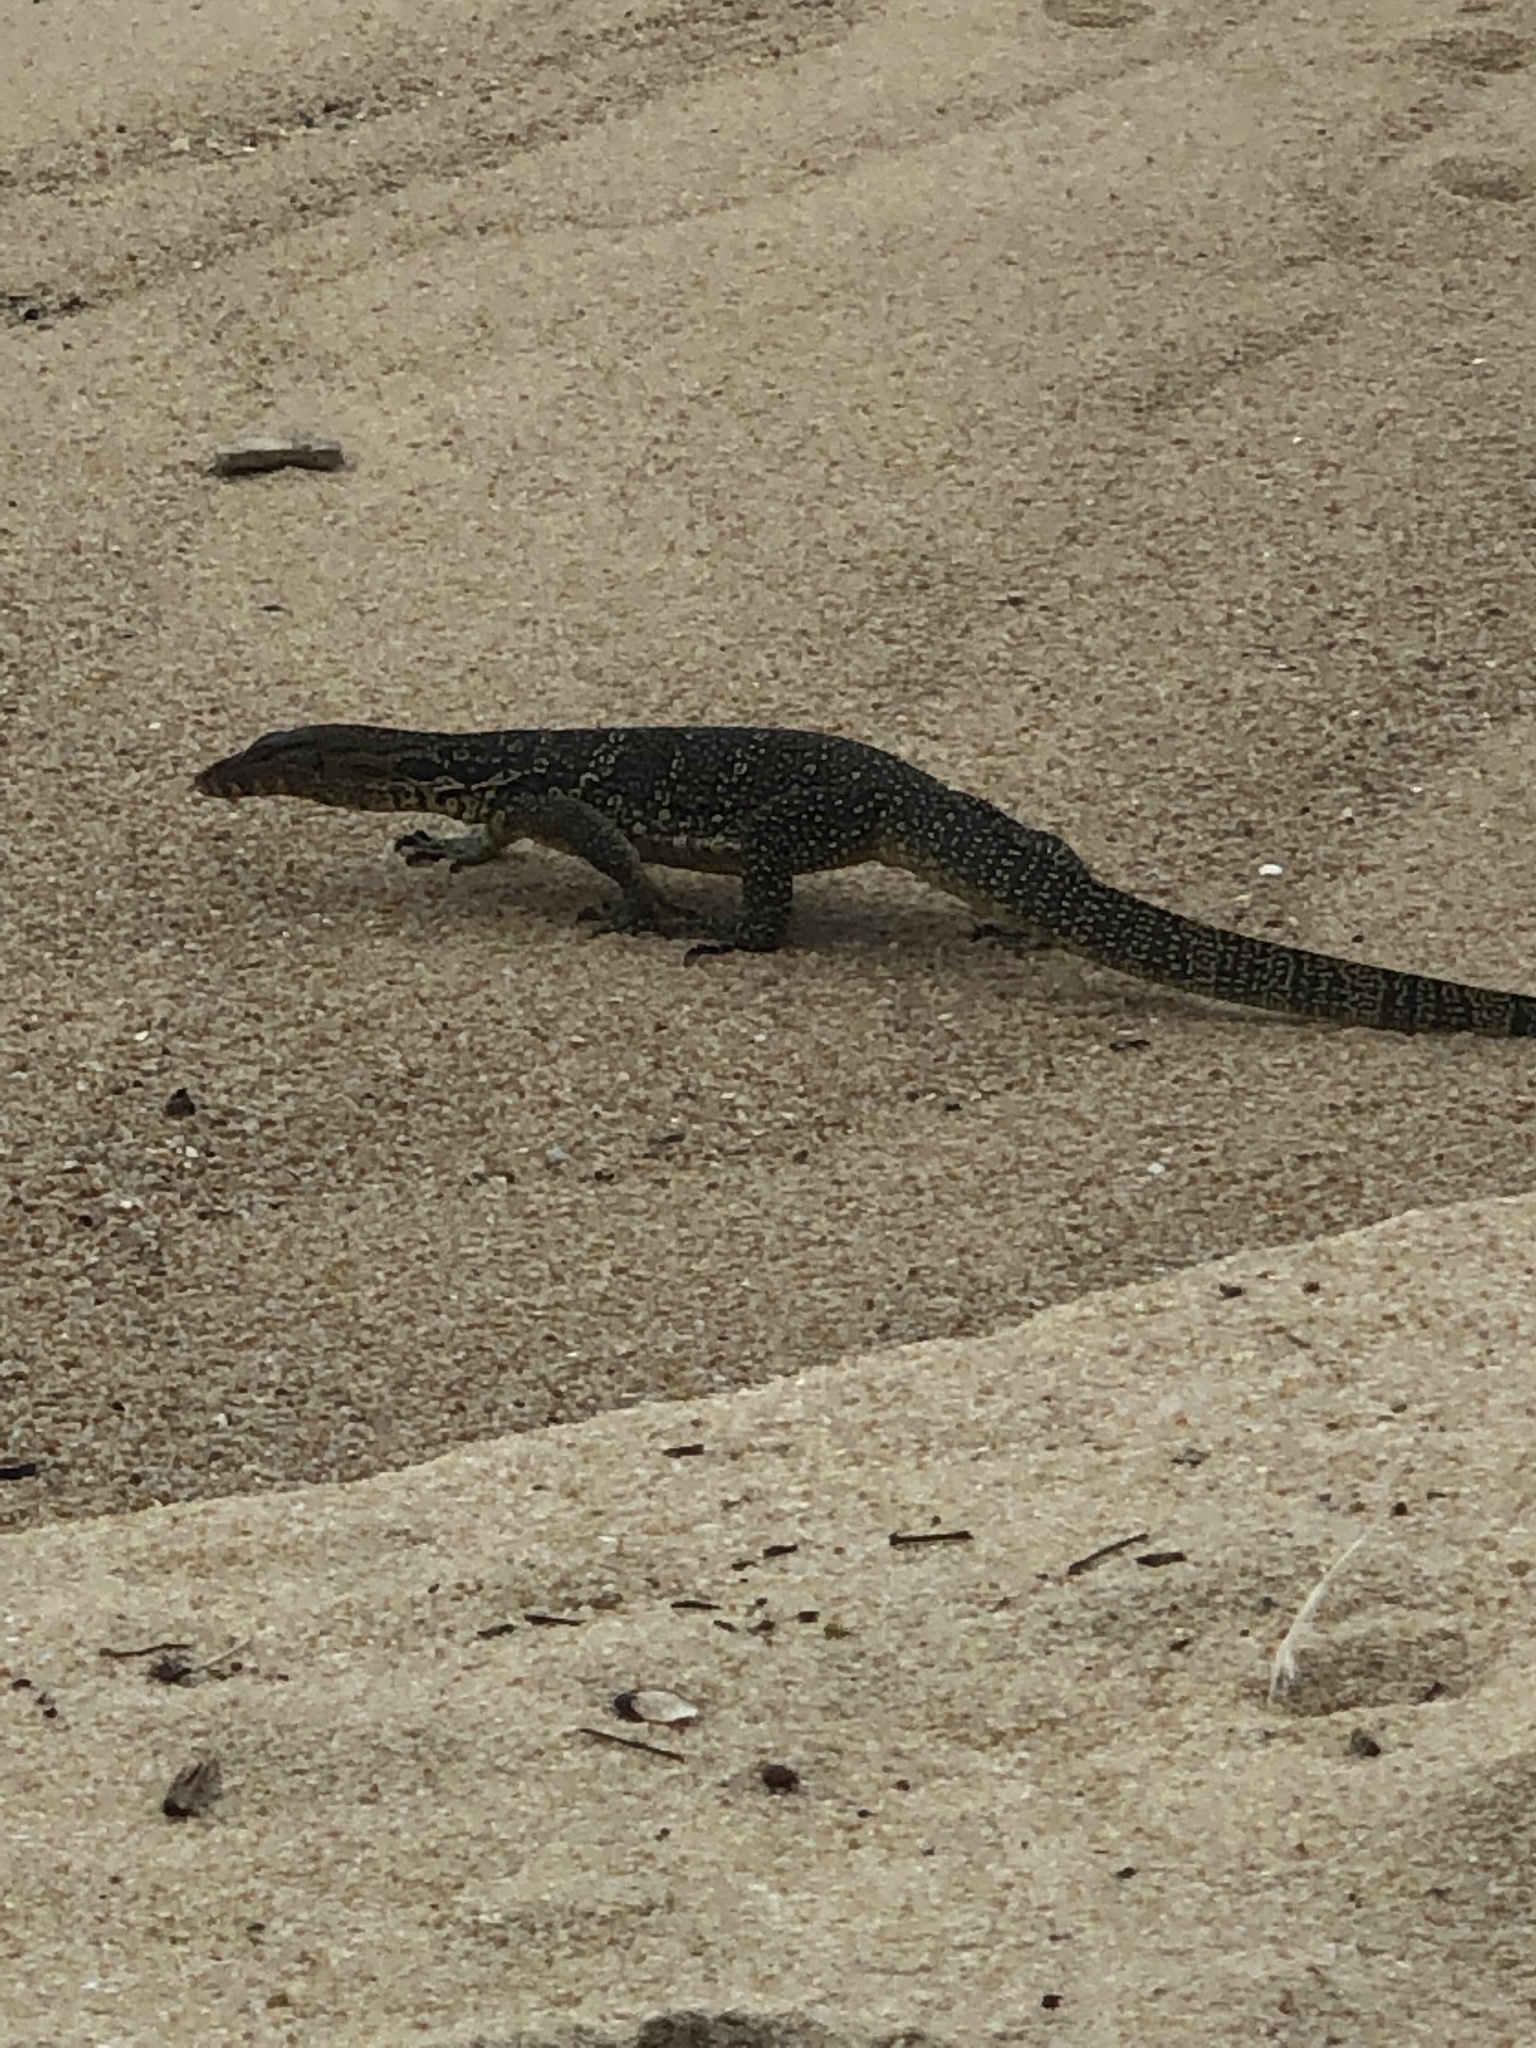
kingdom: Animalia
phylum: Chordata
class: Squamata
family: Varanidae
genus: Varanus
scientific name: Varanus salvator
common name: Common water monitor
